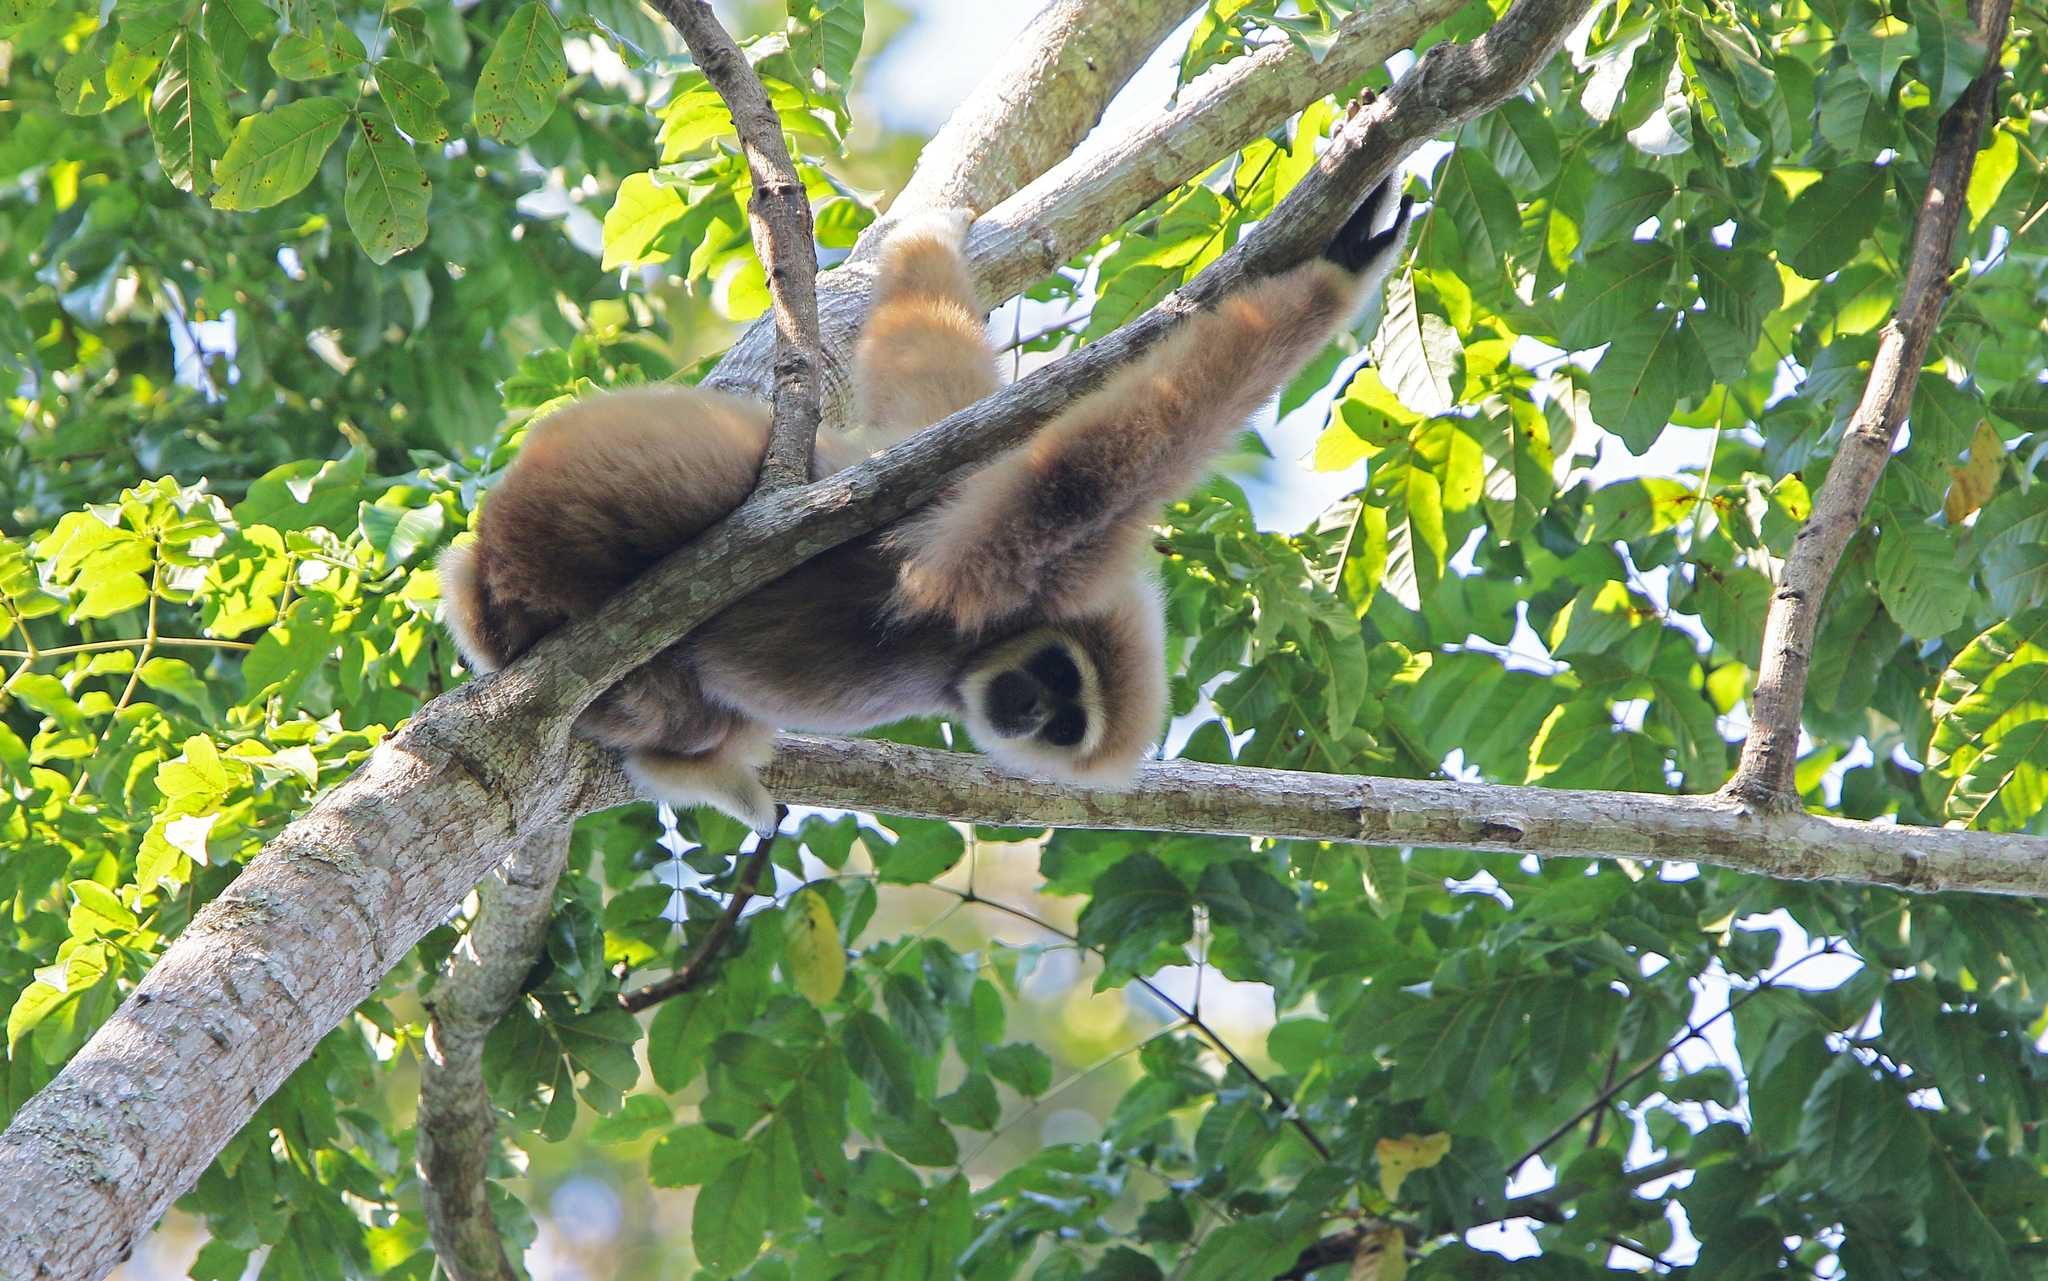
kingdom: Animalia
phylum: Chordata
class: Mammalia
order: Primates
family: Hylobatidae
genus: Hylobates
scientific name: Hylobates lar
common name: Lar gibbon
